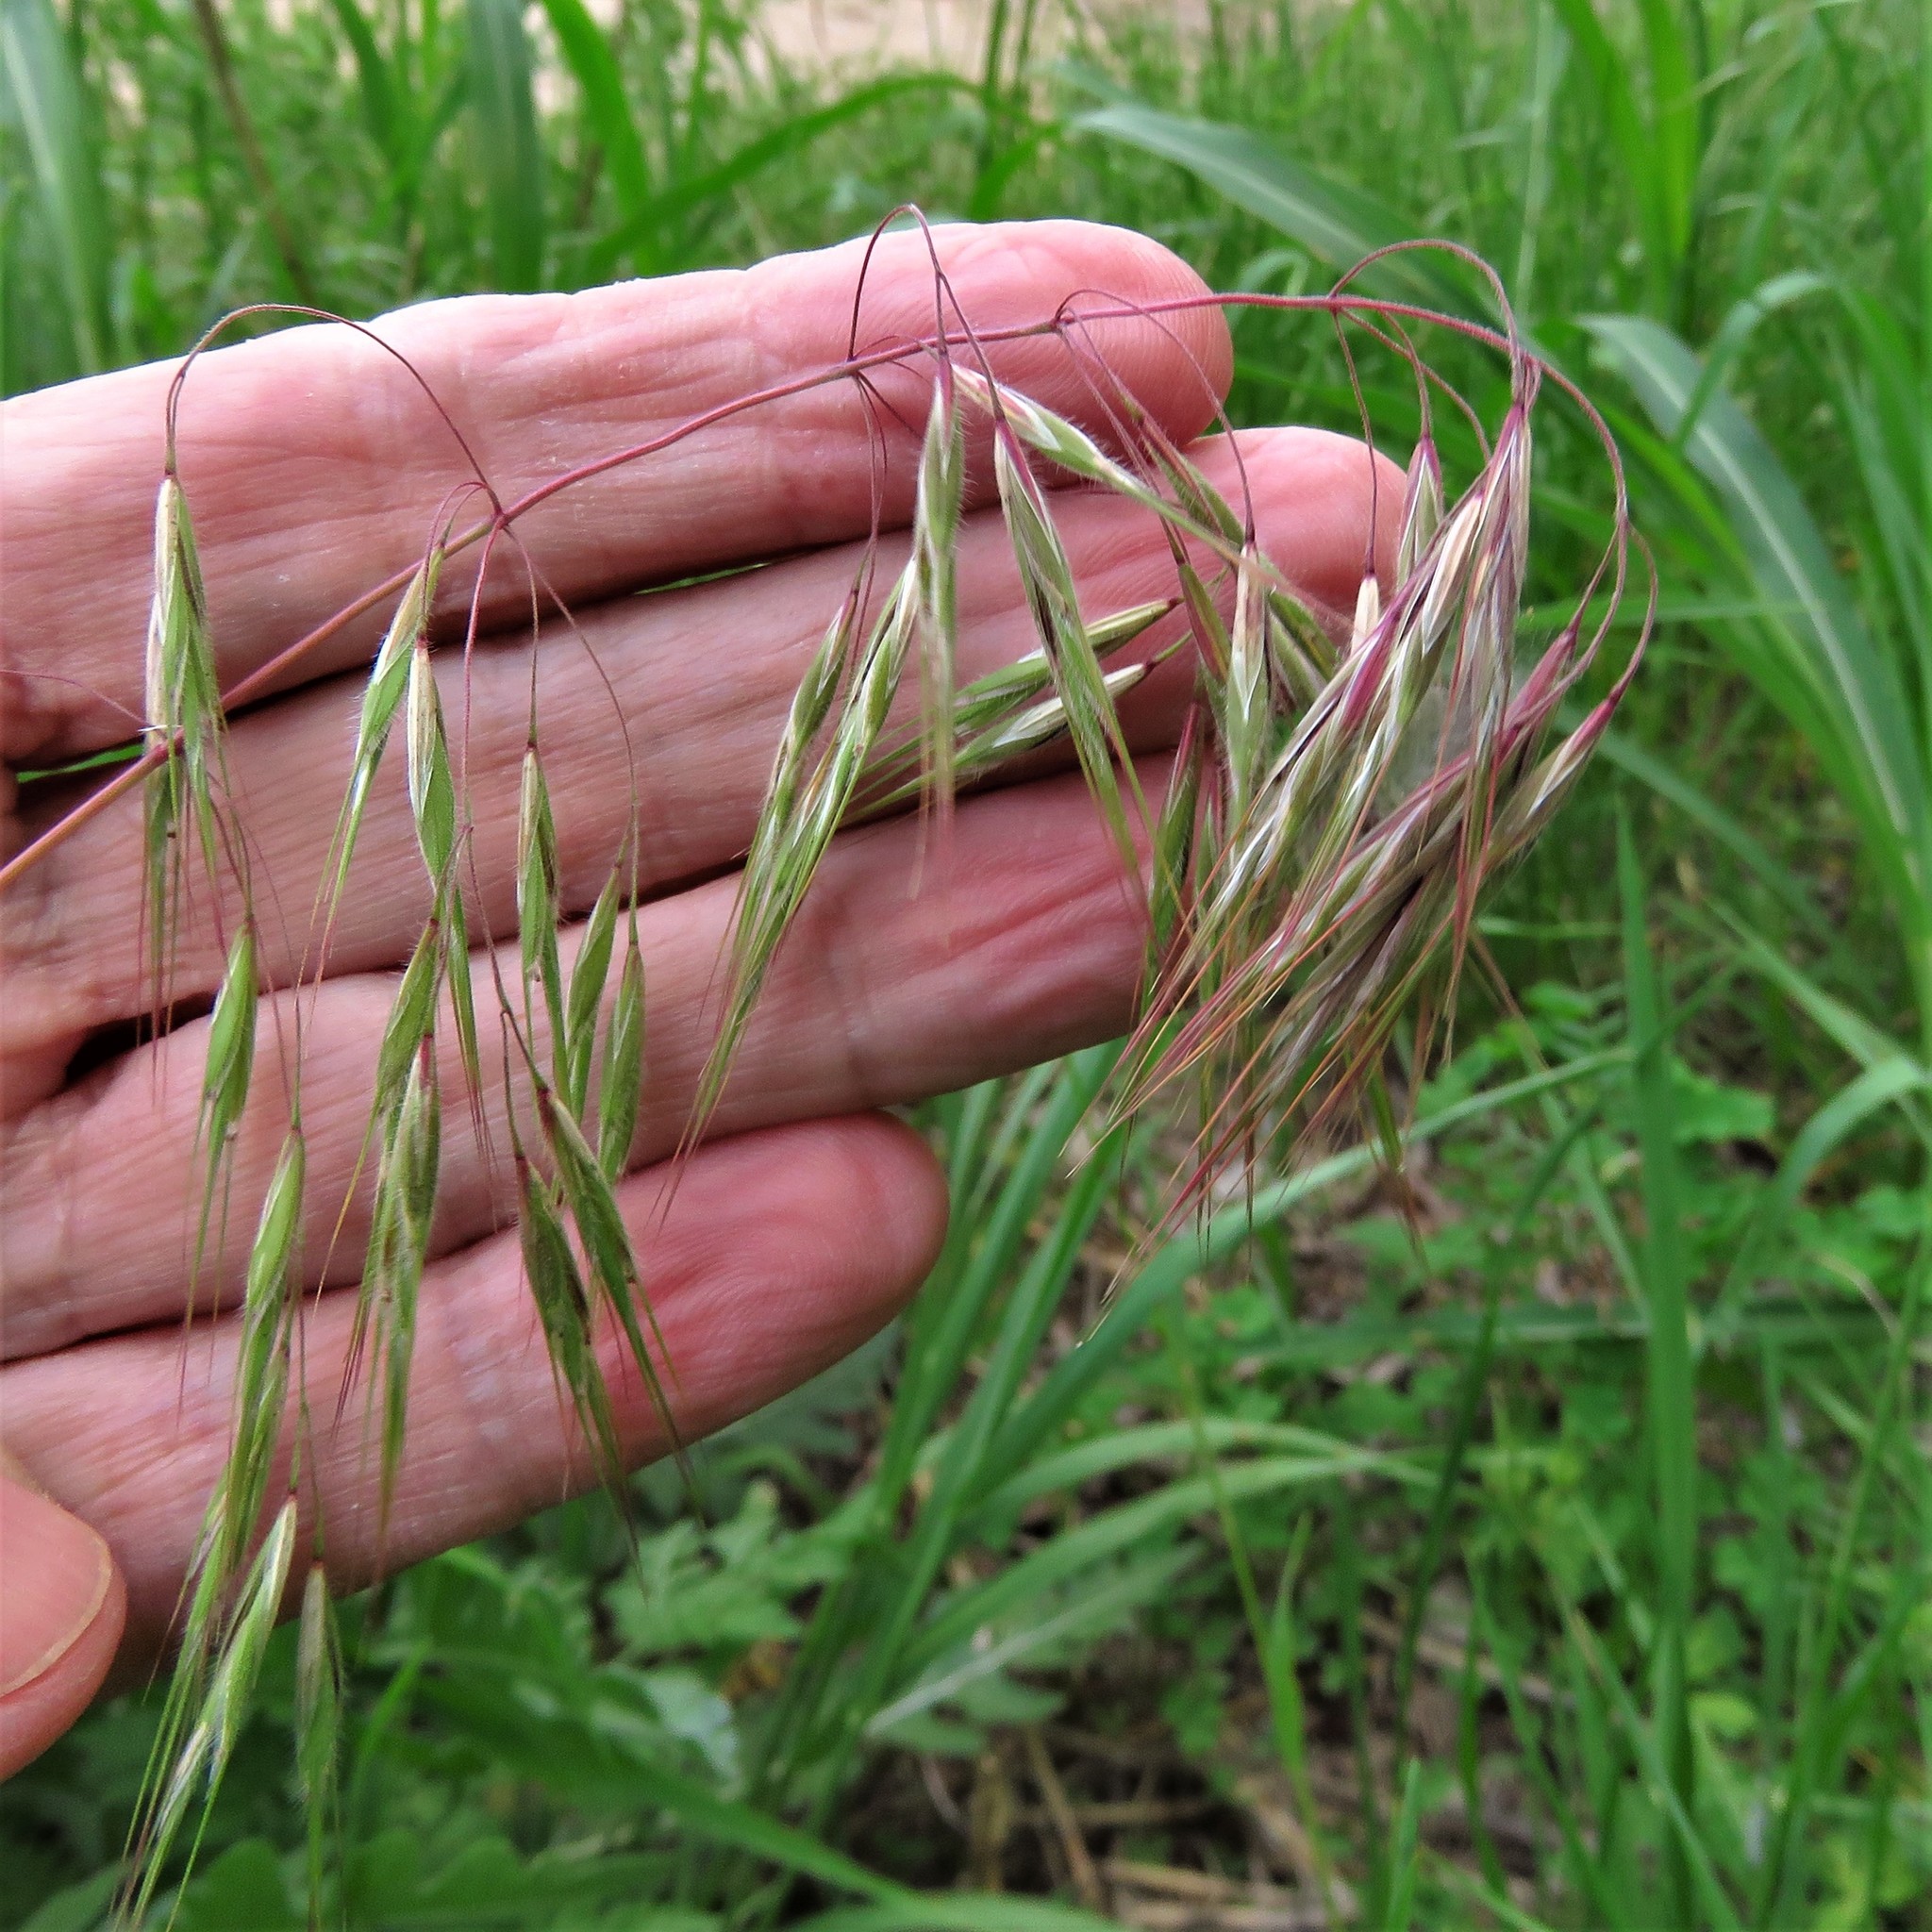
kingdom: Plantae
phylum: Tracheophyta
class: Liliopsida
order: Poales
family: Poaceae
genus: Bromus
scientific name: Bromus tectorum
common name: Cheatgrass
